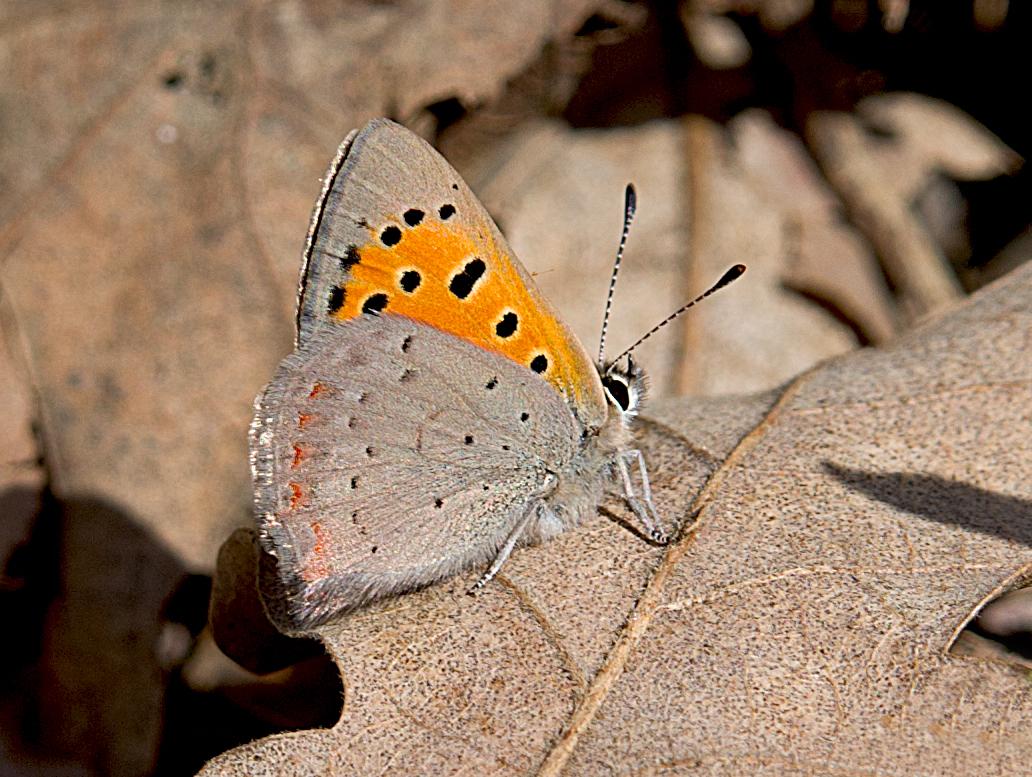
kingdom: Animalia
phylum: Arthropoda
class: Insecta
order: Lepidoptera
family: Lycaenidae
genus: Lycaena
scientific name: Lycaena phlaeas
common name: Small copper
